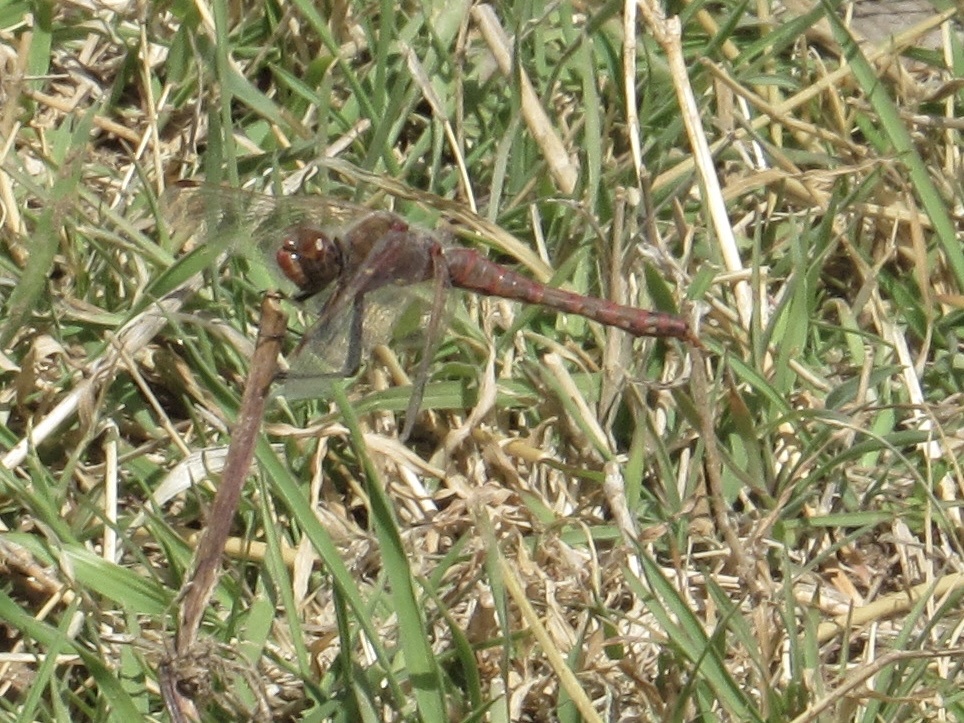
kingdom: Animalia
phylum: Arthropoda
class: Insecta
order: Odonata
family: Libellulidae
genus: Sympetrum
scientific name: Sympetrum corruptum
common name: Variegated meadowhawk
